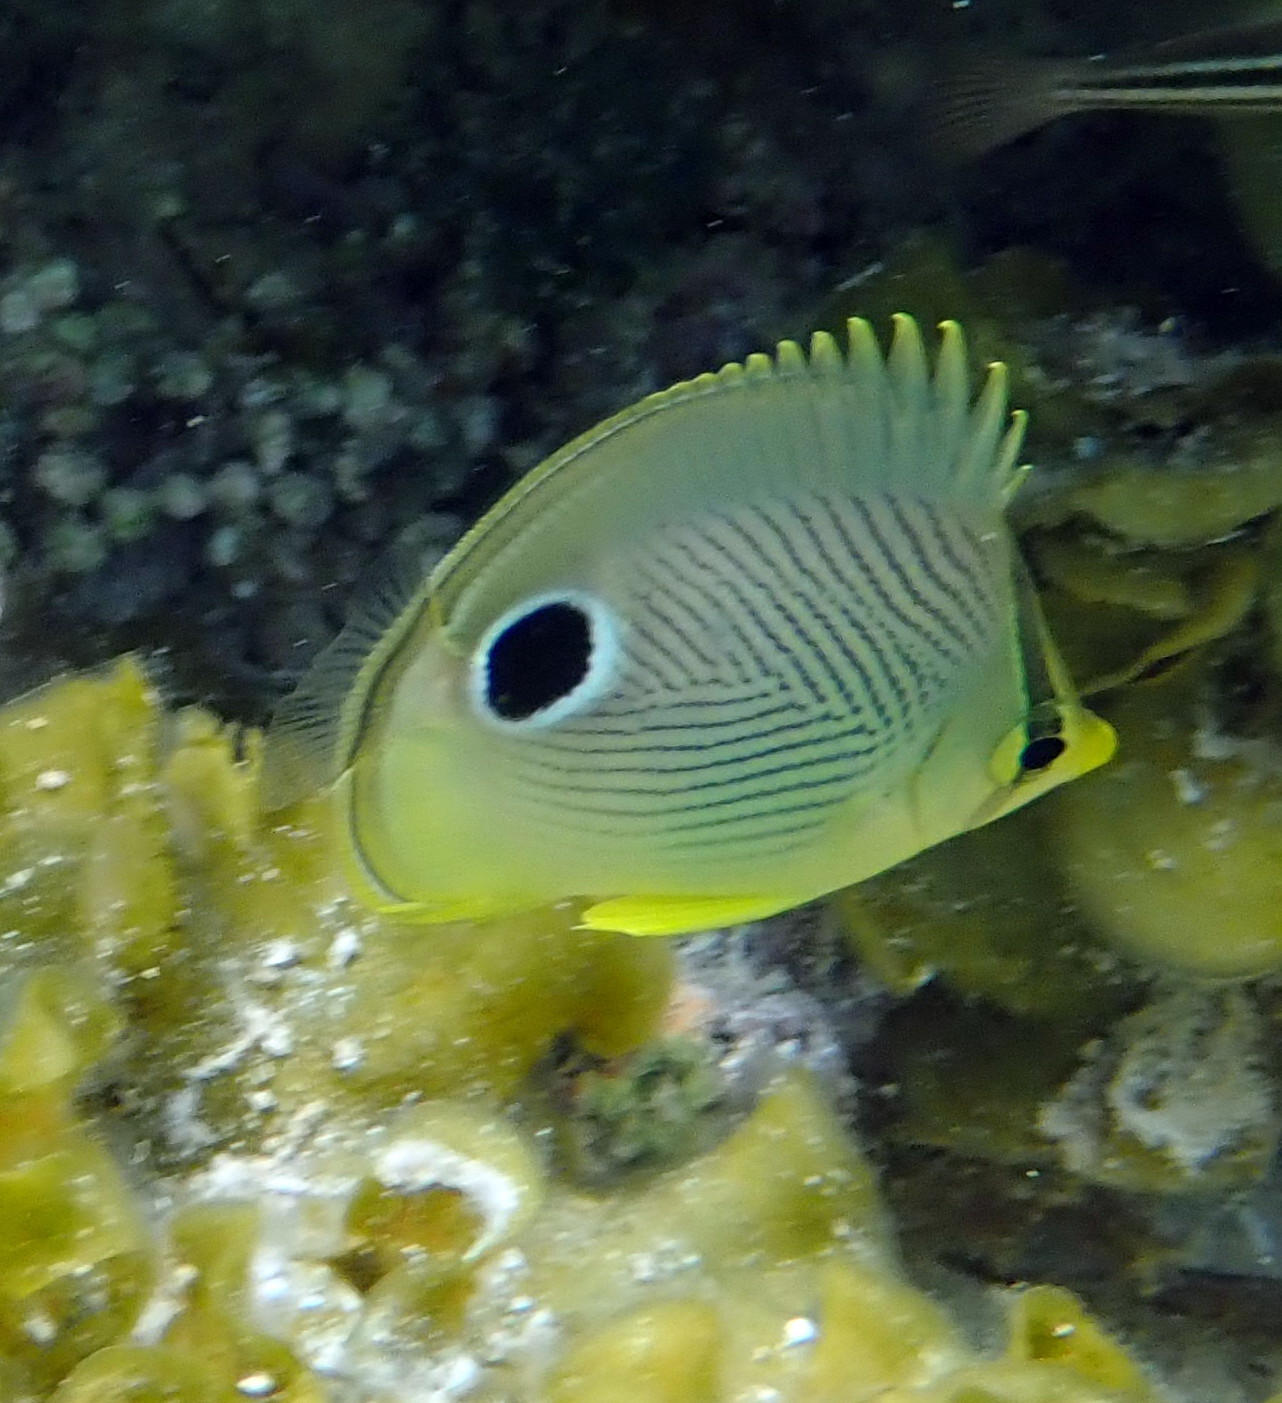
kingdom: Animalia
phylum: Chordata
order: Perciformes
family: Chaetodontidae
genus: Chaetodon
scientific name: Chaetodon capistratus
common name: Kete
